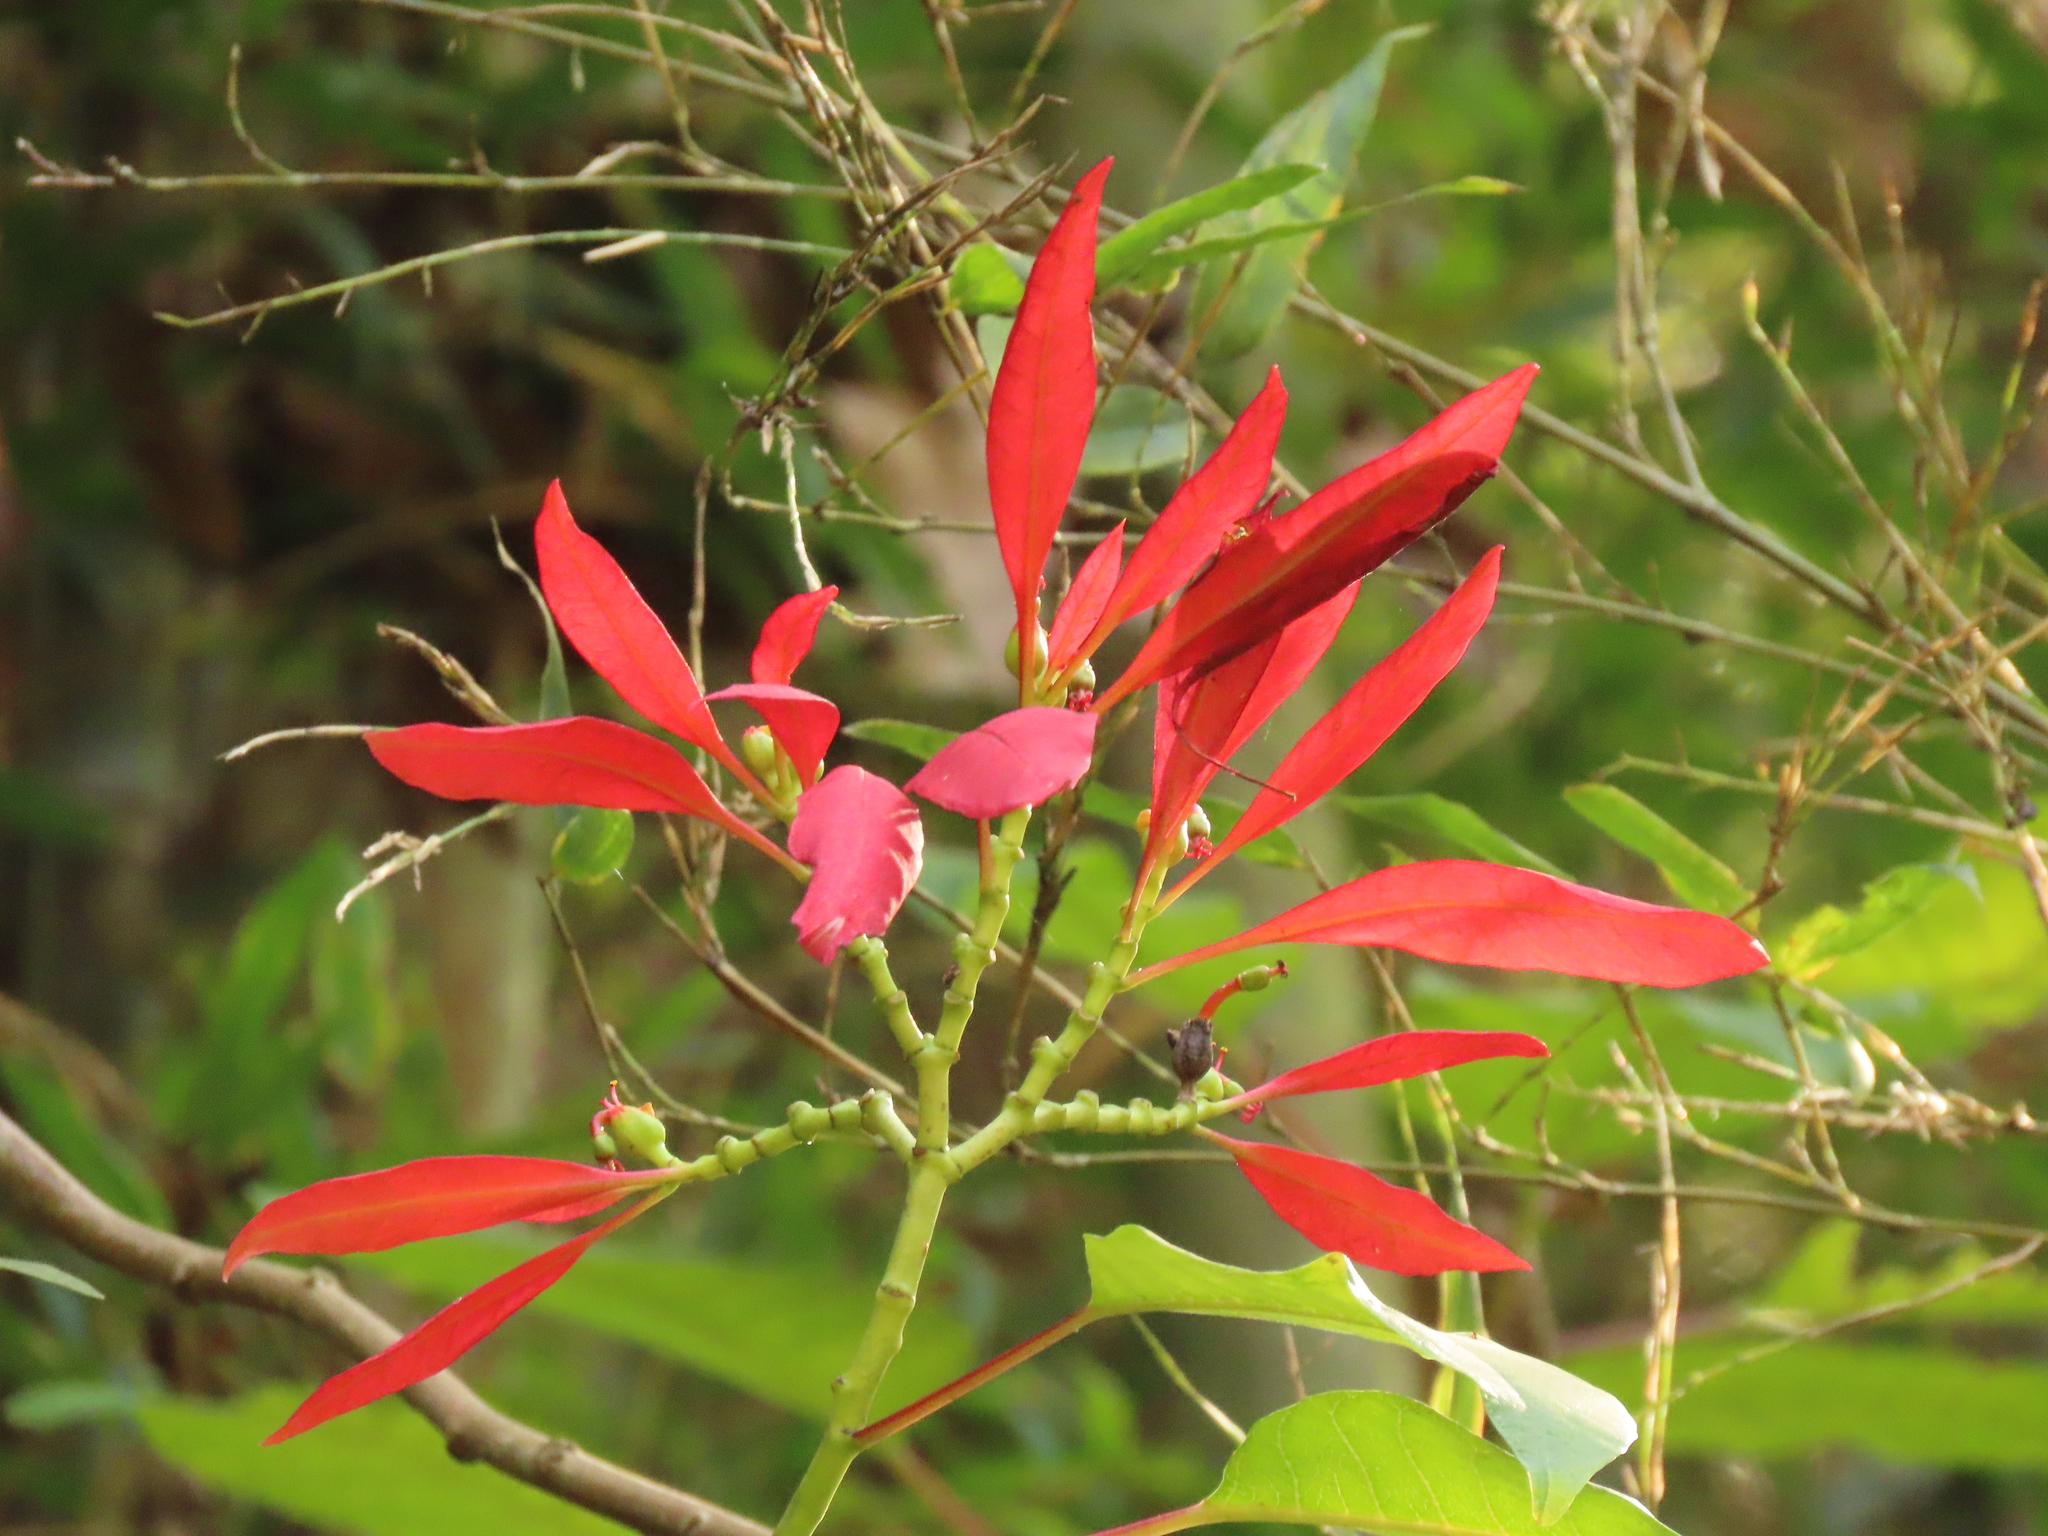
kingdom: Plantae
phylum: Tracheophyta
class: Magnoliopsida
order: Malpighiales
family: Euphorbiaceae
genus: Euphorbia
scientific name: Euphorbia pulcherrima
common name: Christmas-flower
